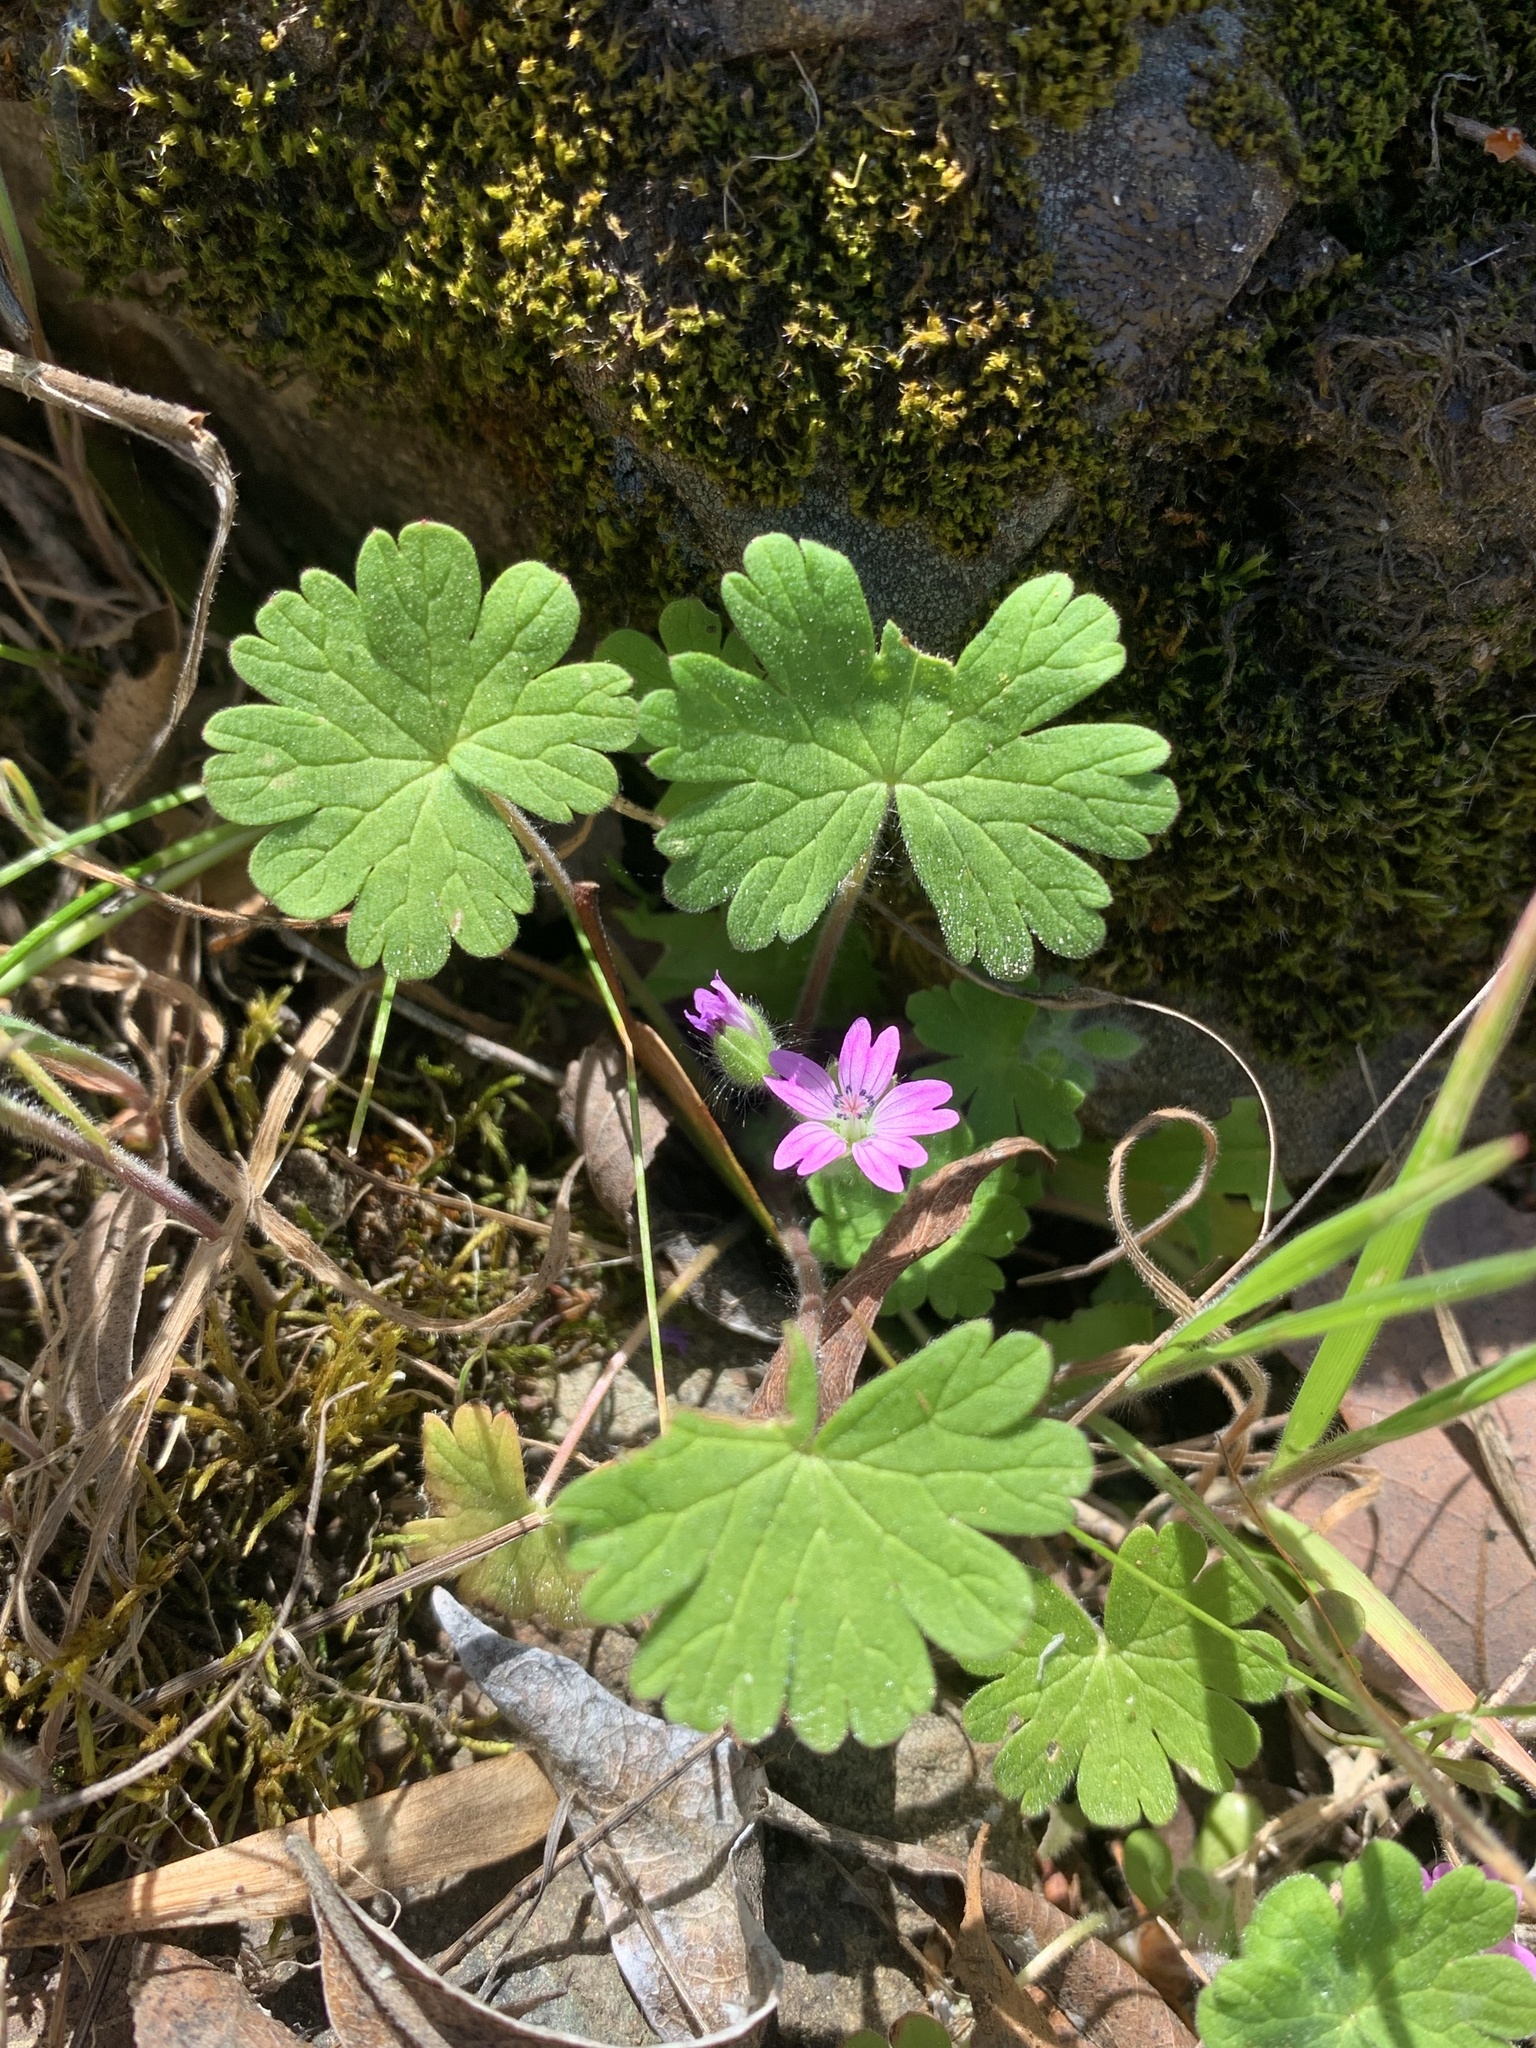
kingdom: Plantae
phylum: Tracheophyta
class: Magnoliopsida
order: Geraniales
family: Geraniaceae
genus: Geranium
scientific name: Geranium molle
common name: Dove's-foot crane's-bill
